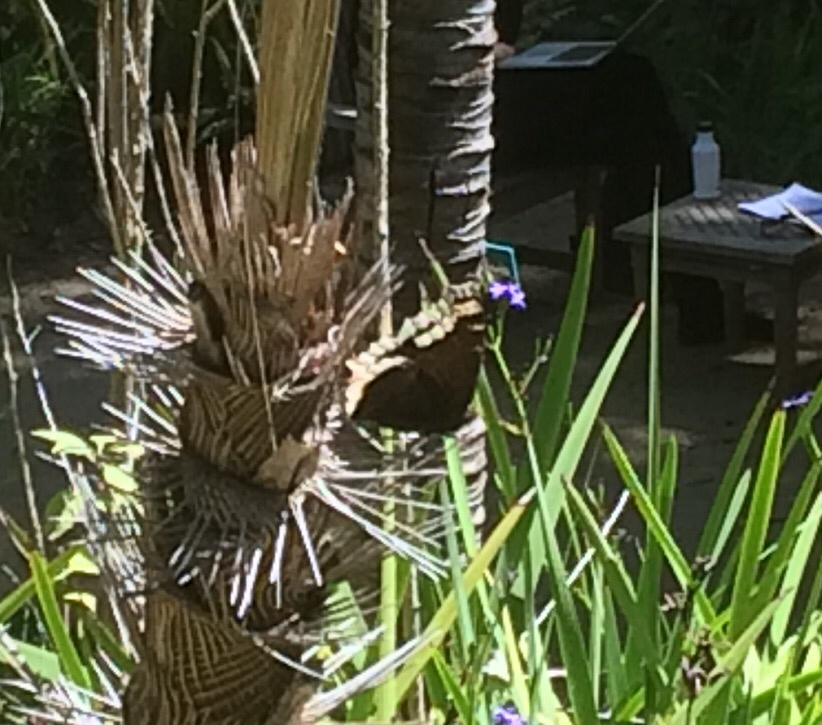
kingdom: Animalia
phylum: Arthropoda
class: Insecta
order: Lepidoptera
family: Nymphalidae
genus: Nymphalis
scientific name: Nymphalis antiopa
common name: Camberwell beauty
